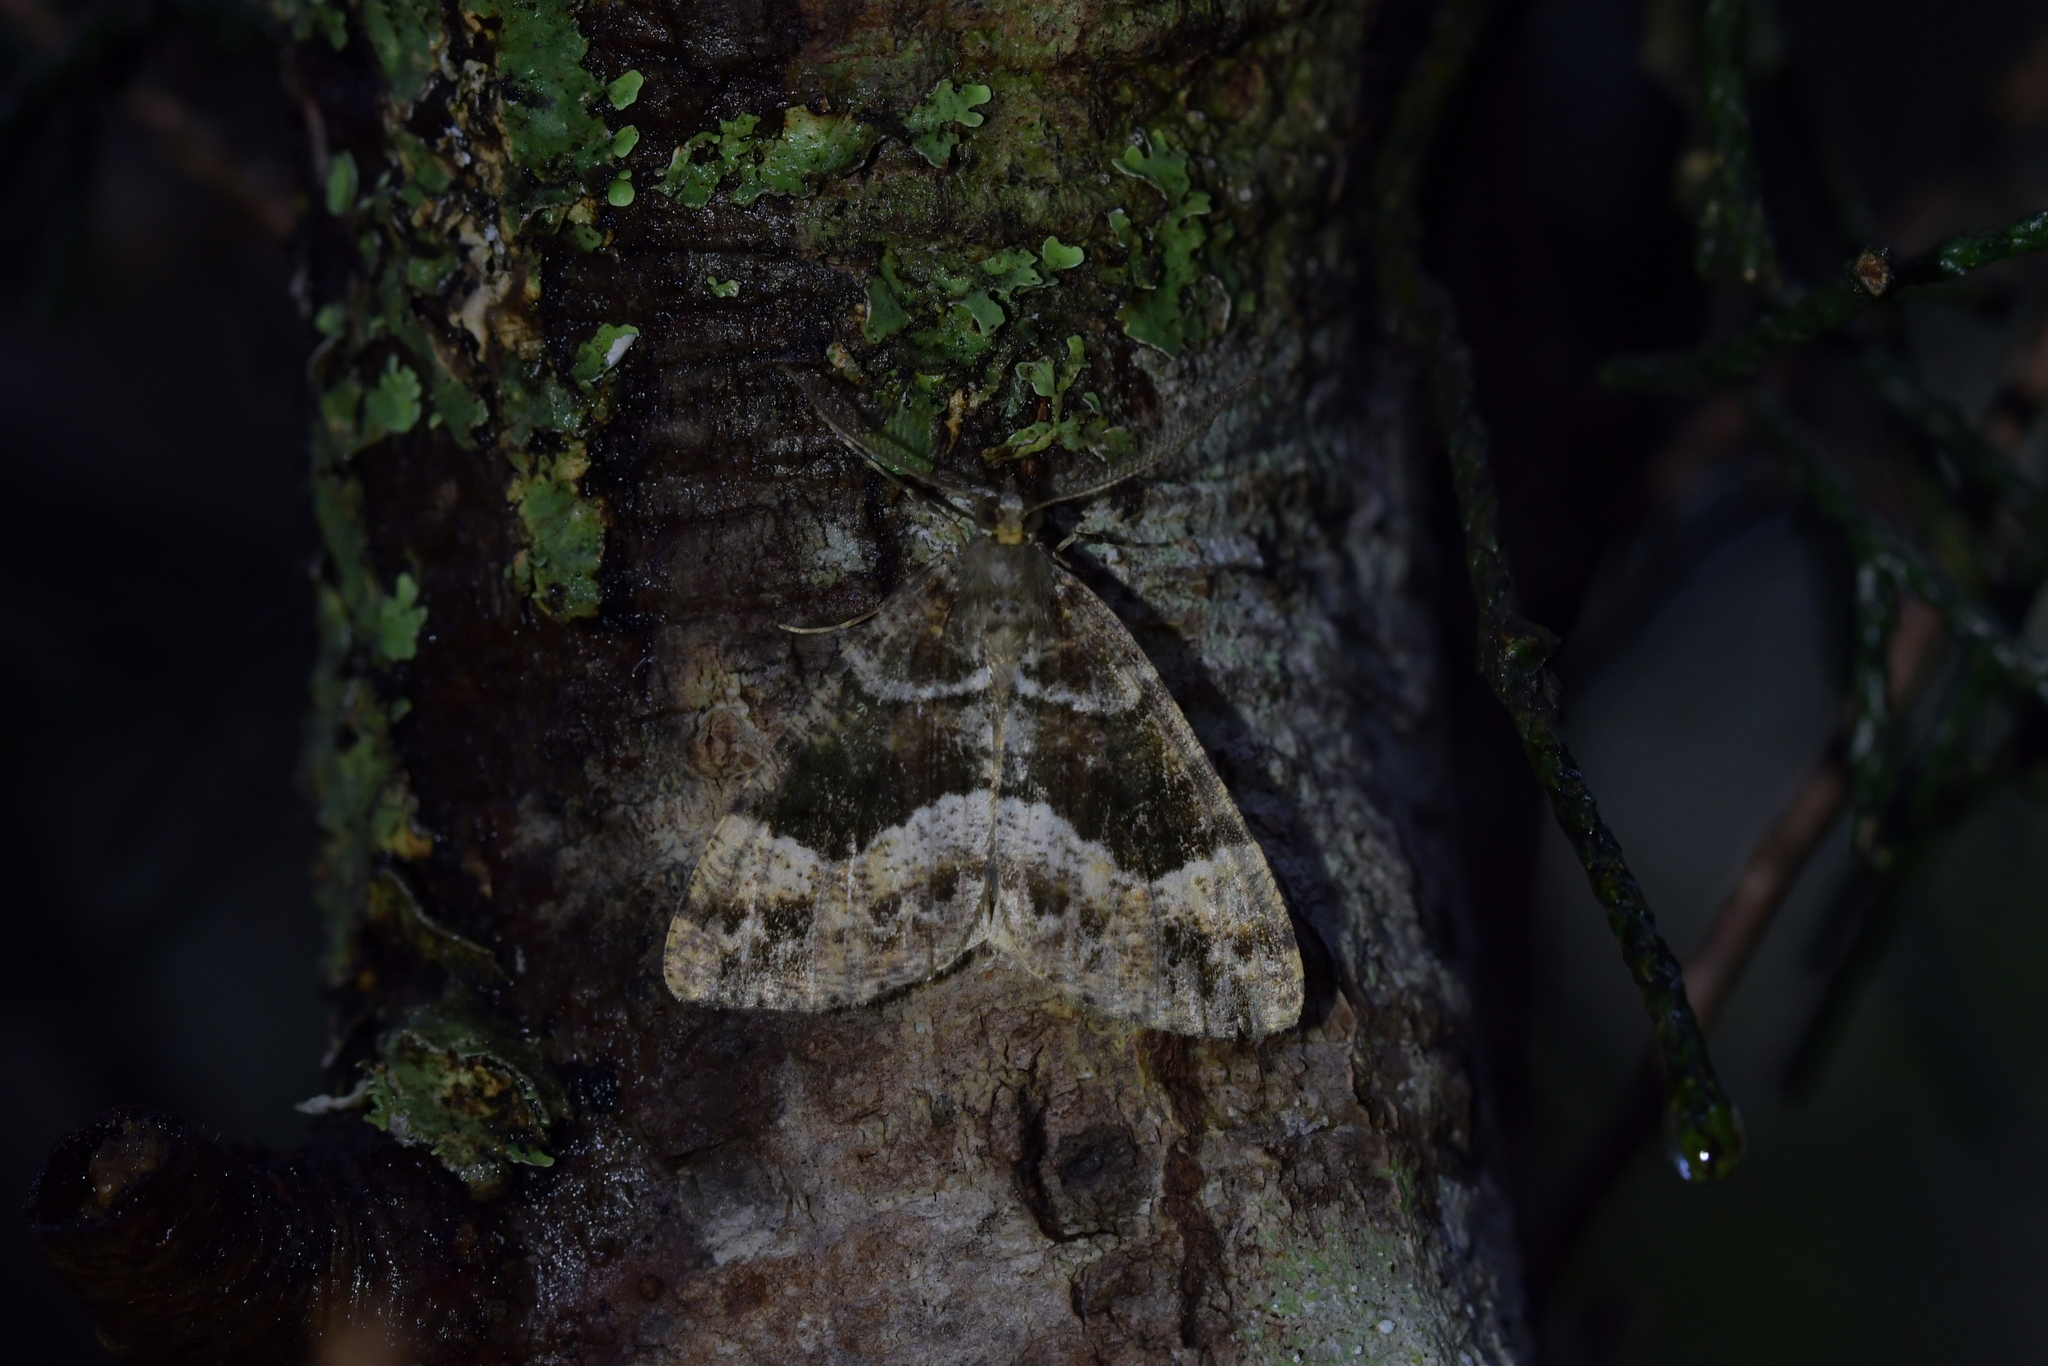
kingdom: Animalia
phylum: Arthropoda
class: Insecta
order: Lepidoptera
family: Geometridae
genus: Pseudocoremia
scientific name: Pseudocoremia productata
